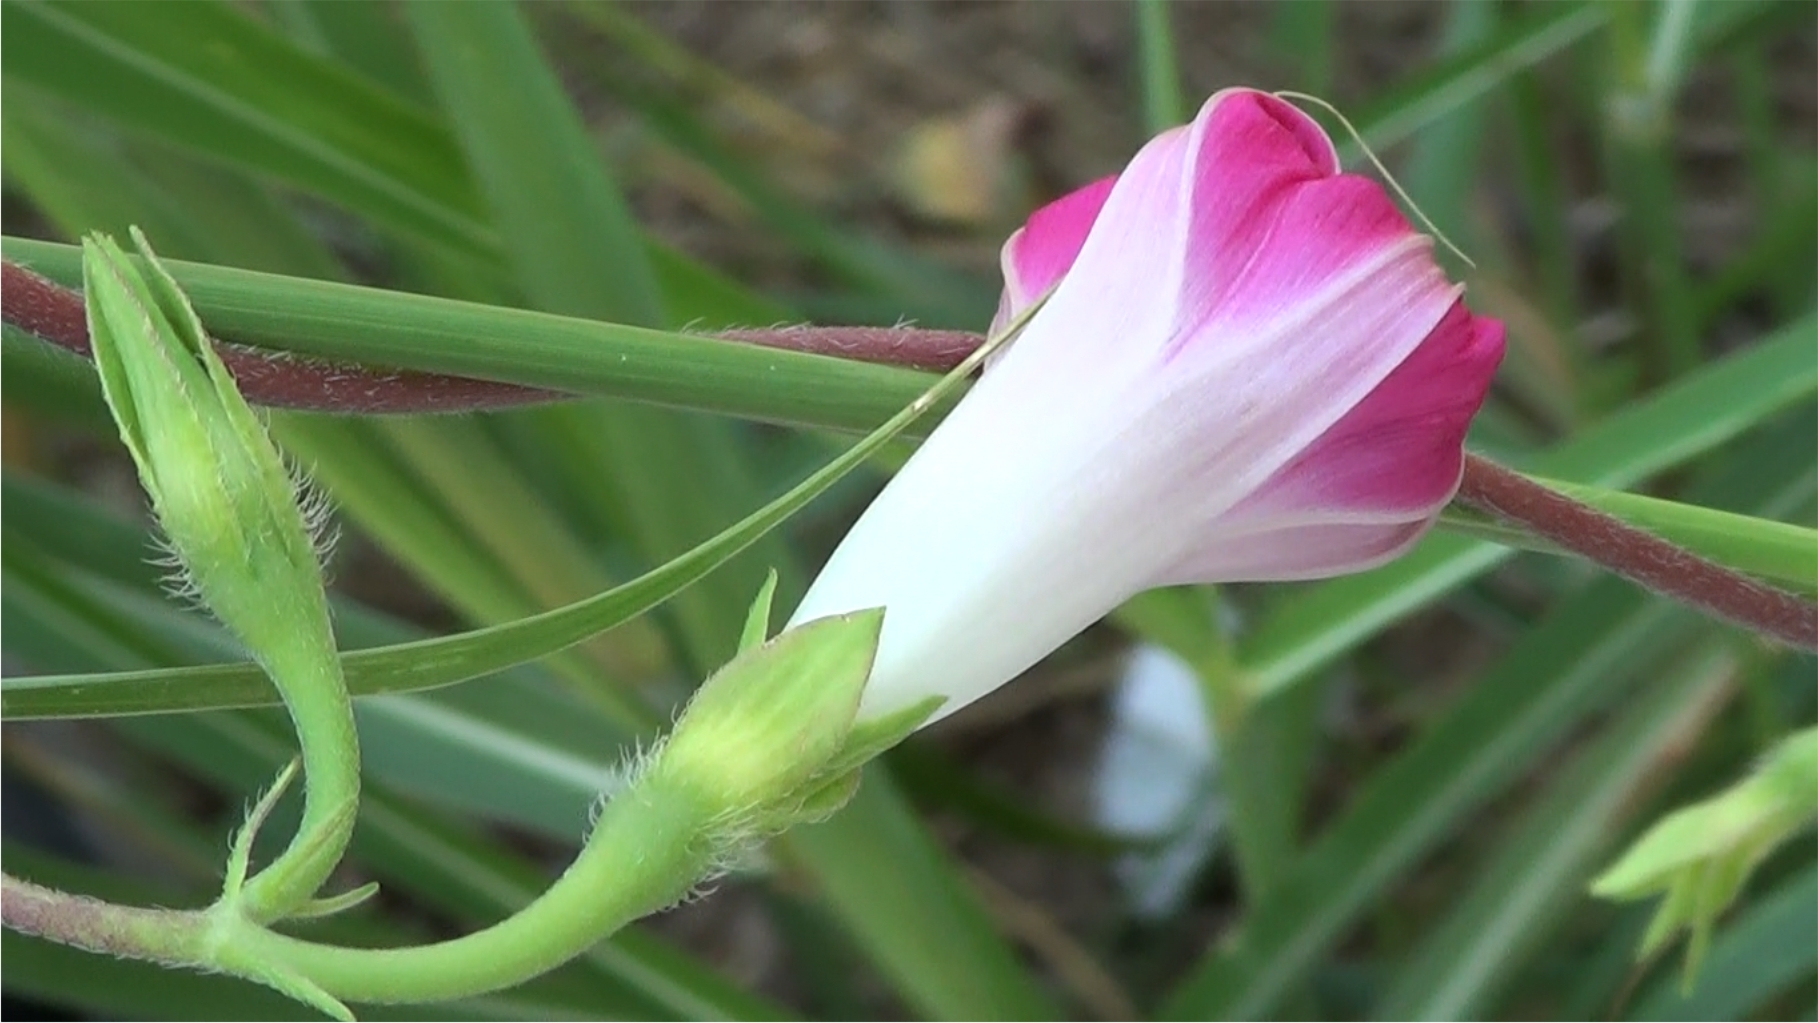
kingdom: Plantae
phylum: Tracheophyta
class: Magnoliopsida
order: Solanales
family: Convolvulaceae
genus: Ipomoea
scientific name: Ipomoea purpurea
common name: Common morning-glory
